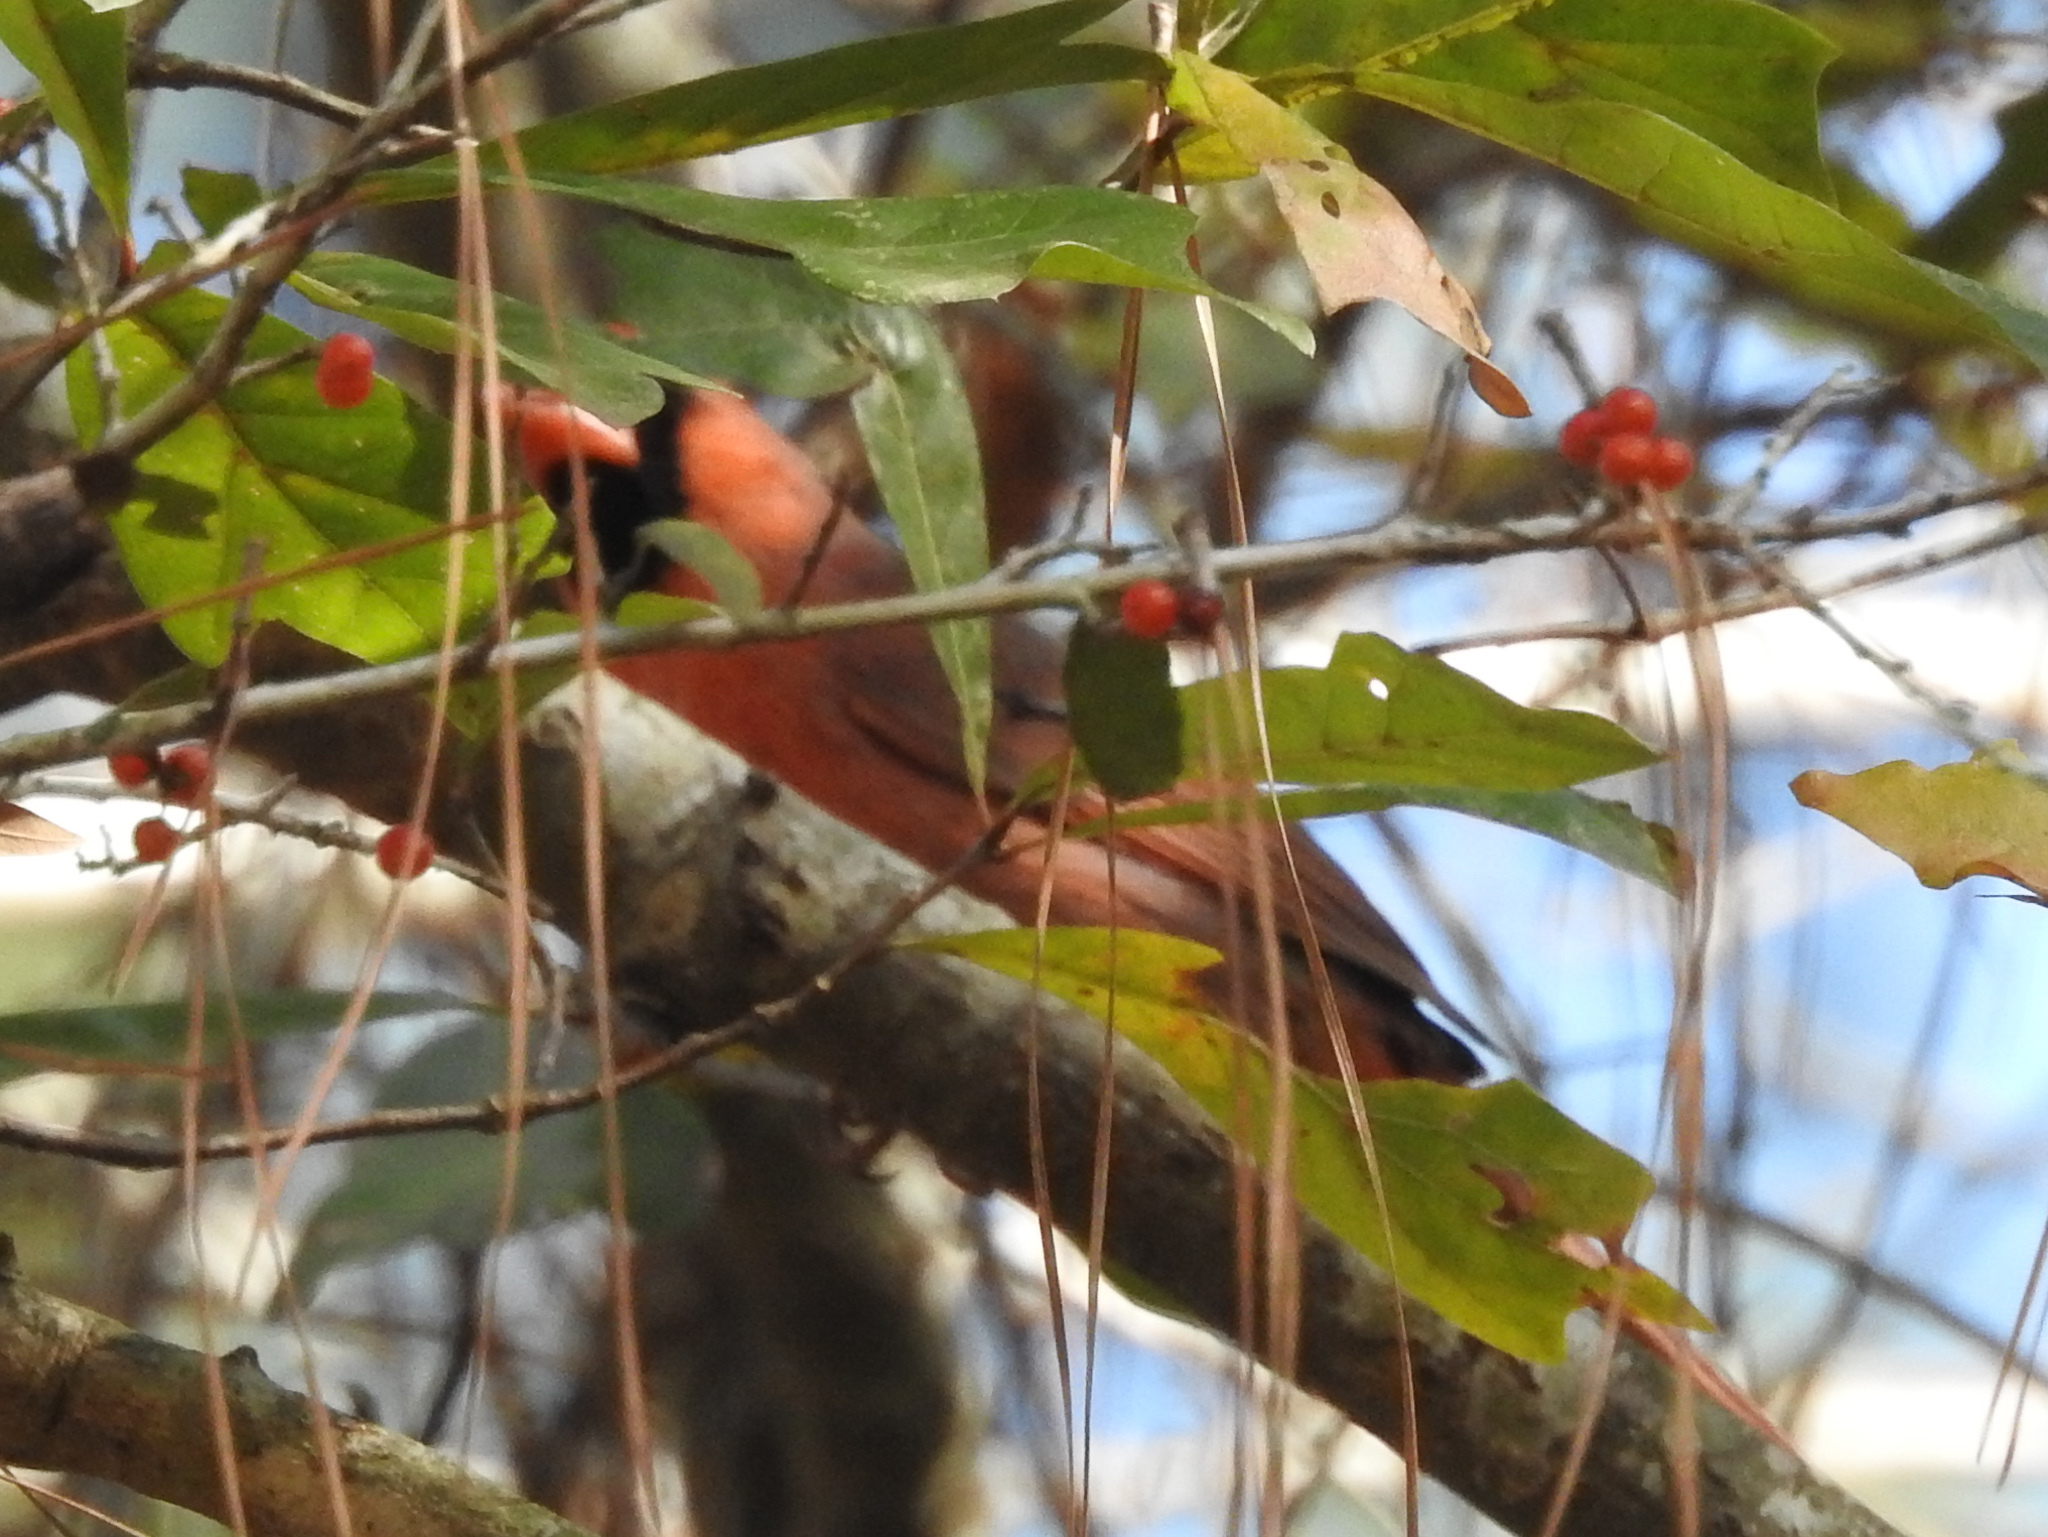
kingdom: Animalia
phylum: Chordata
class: Aves
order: Passeriformes
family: Cardinalidae
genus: Cardinalis
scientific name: Cardinalis cardinalis
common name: Northern cardinal
